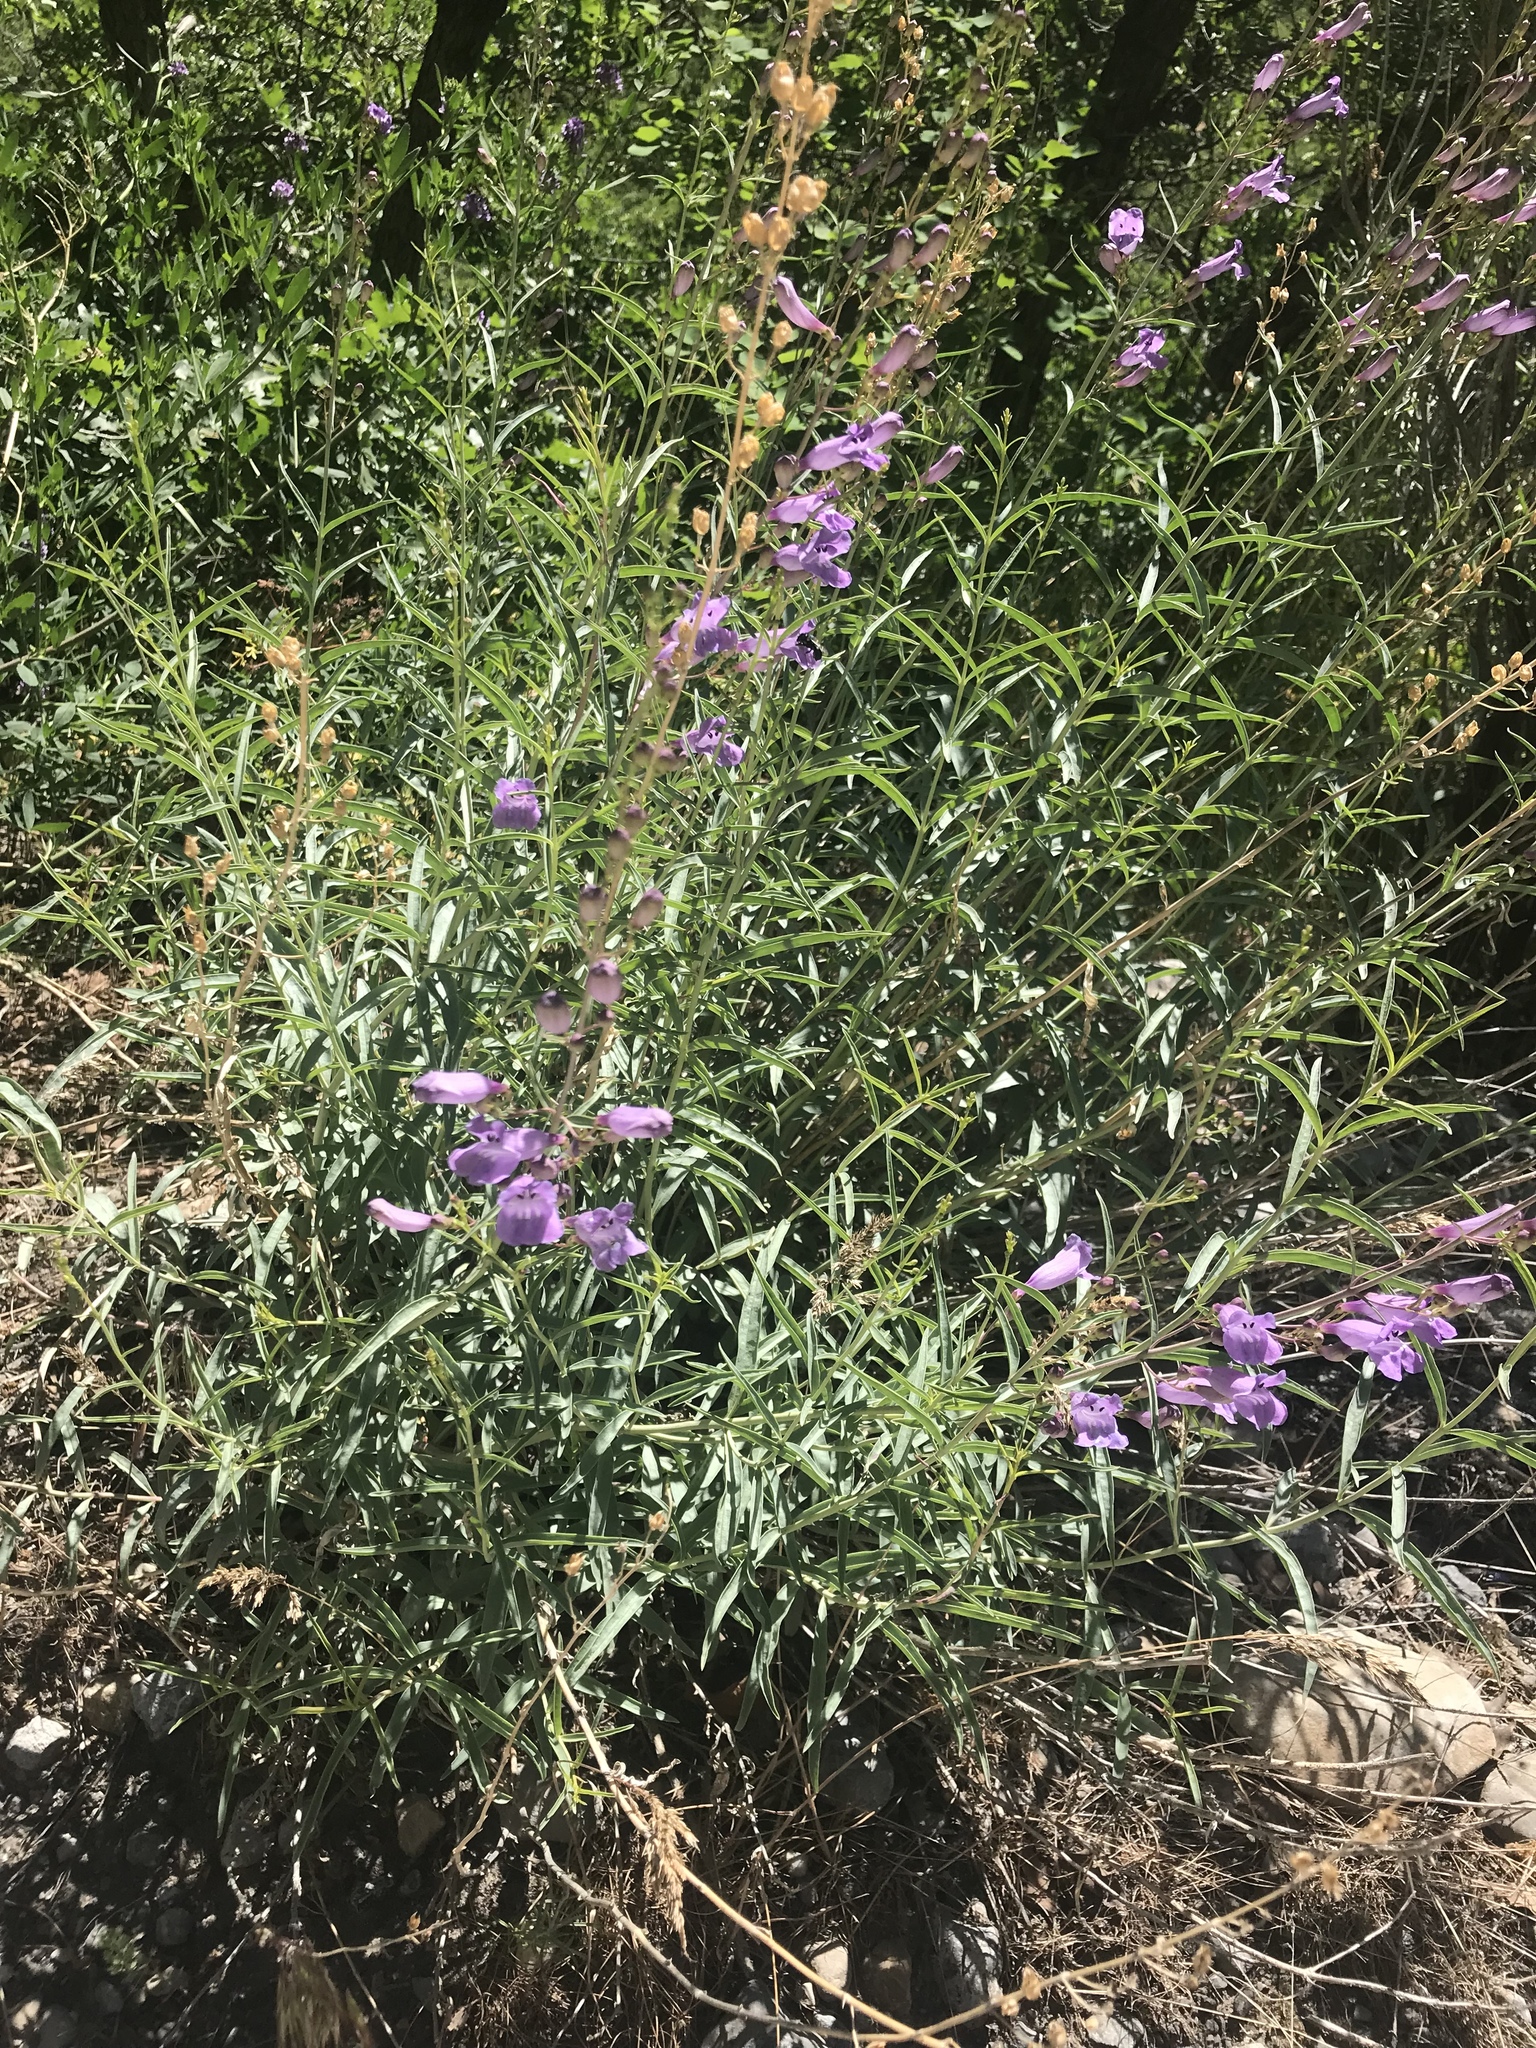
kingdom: Plantae
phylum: Tracheophyta
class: Magnoliopsida
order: Lamiales
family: Plantaginaceae
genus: Penstemon
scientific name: Penstemon sepalulus
